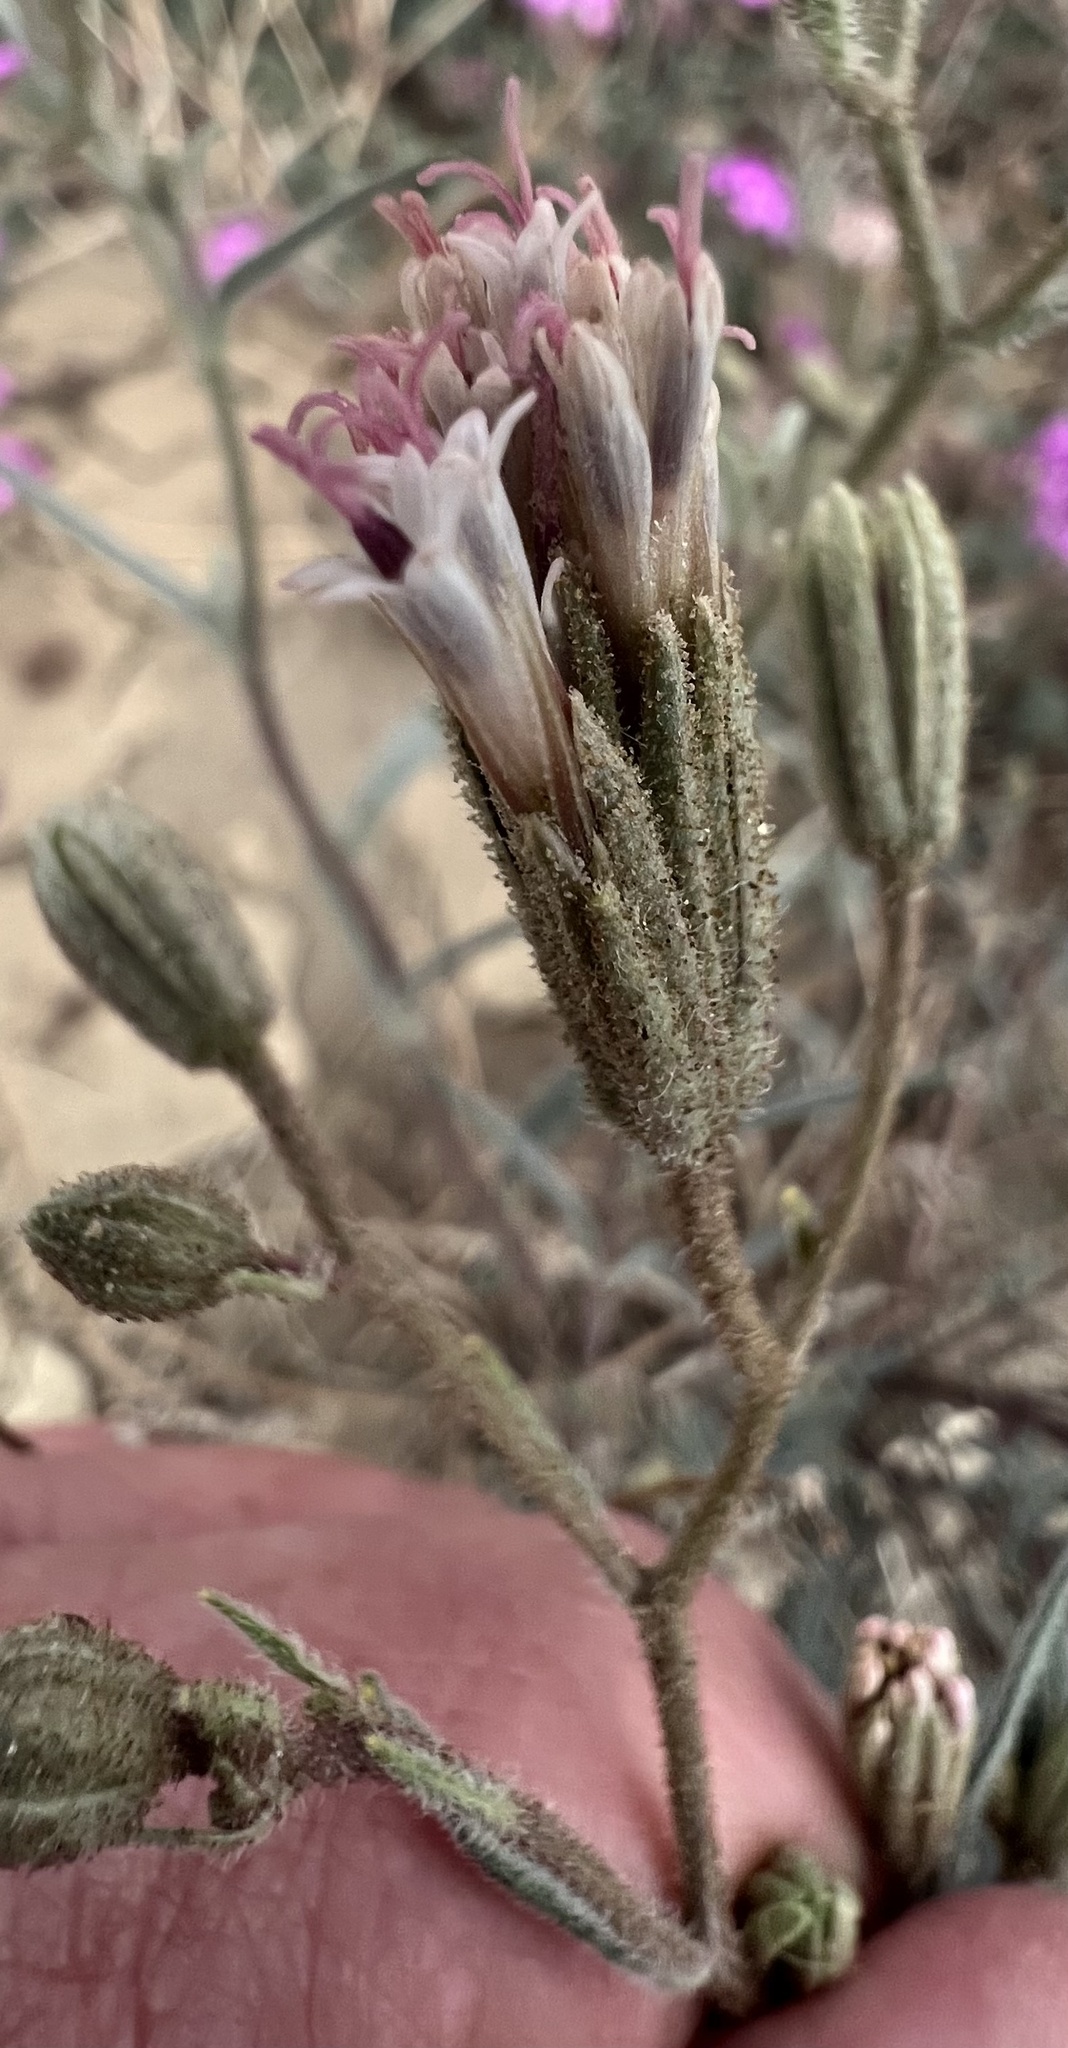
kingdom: Plantae
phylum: Tracheophyta
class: Magnoliopsida
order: Asterales
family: Asteraceae
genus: Palafoxia
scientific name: Palafoxia arida
